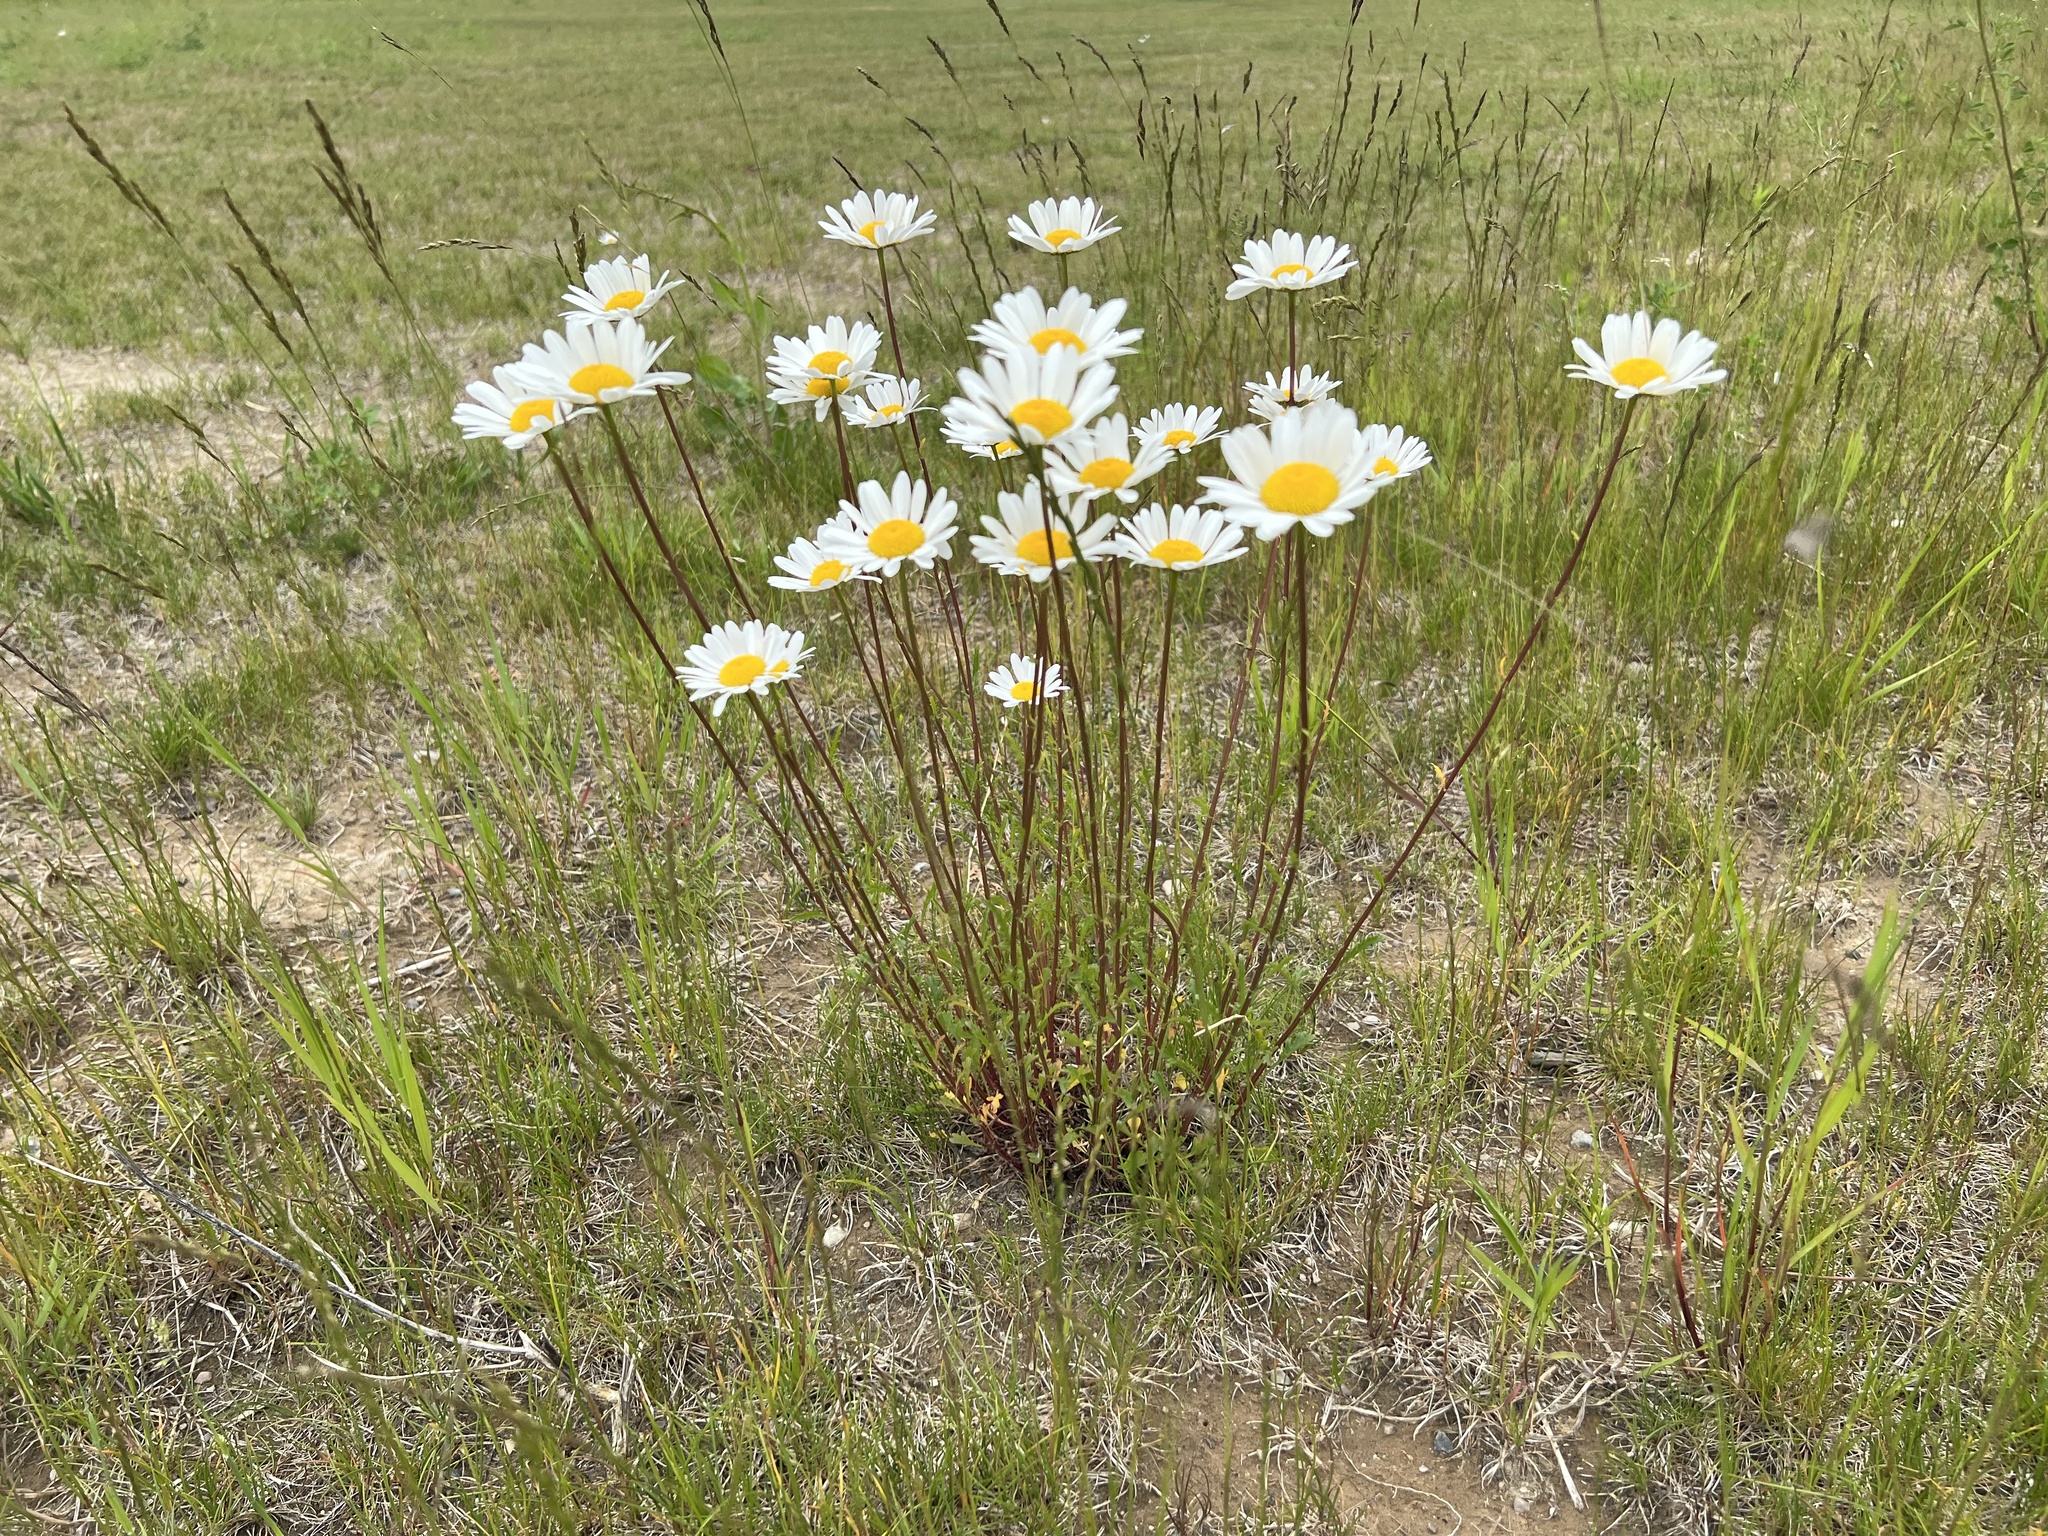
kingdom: Plantae
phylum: Tracheophyta
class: Magnoliopsida
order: Asterales
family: Asteraceae
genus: Leucanthemum
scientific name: Leucanthemum vulgare
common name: Oxeye daisy
